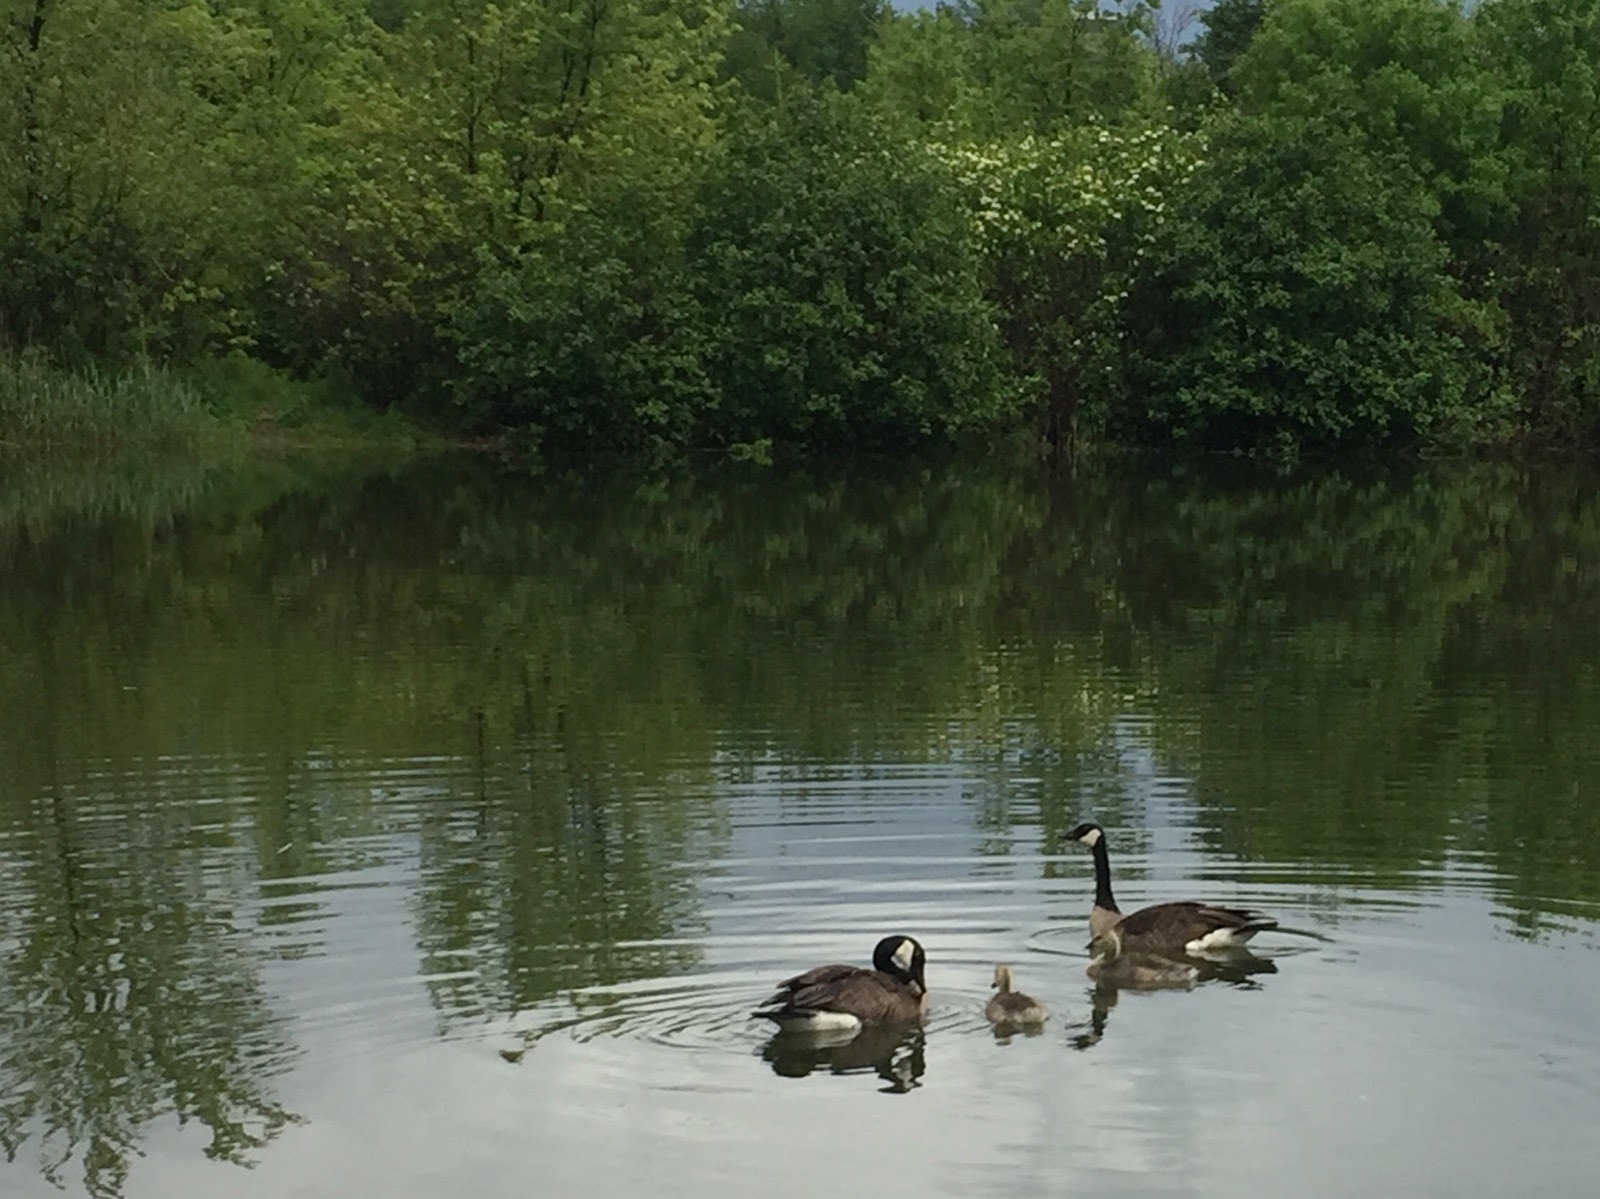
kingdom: Animalia
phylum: Chordata
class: Aves
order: Anseriformes
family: Anatidae
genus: Branta
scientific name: Branta canadensis
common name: Canada goose
